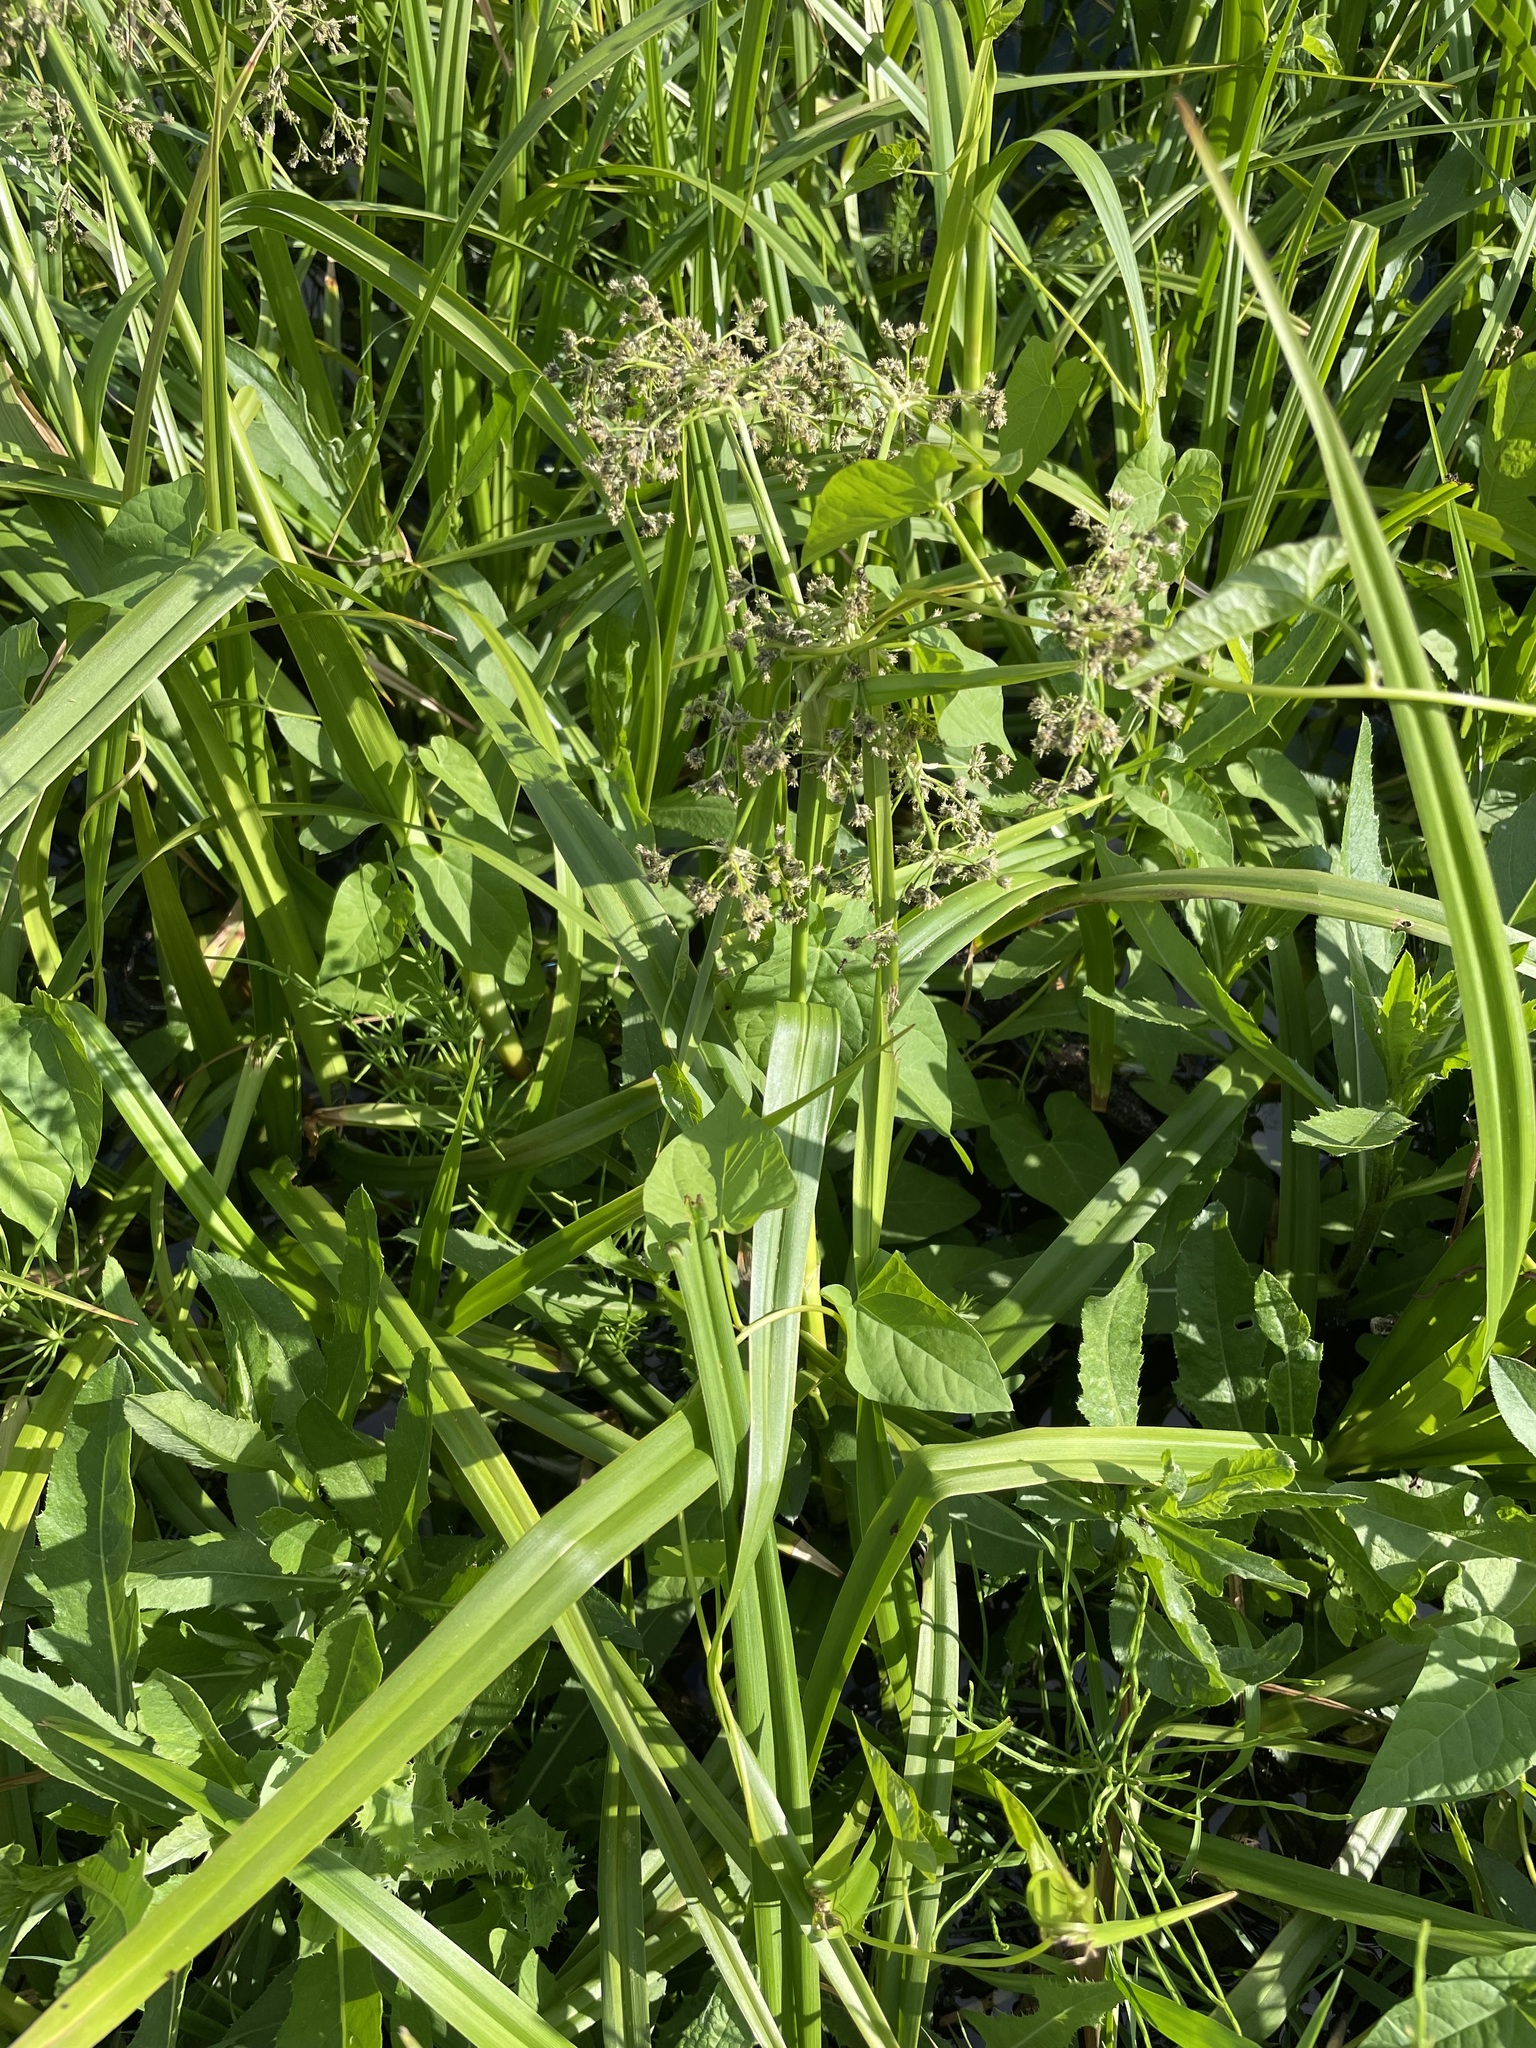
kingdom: Plantae
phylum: Tracheophyta
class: Liliopsida
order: Poales
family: Cyperaceae
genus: Scirpus
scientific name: Scirpus sylvaticus
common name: Wood club-rush
